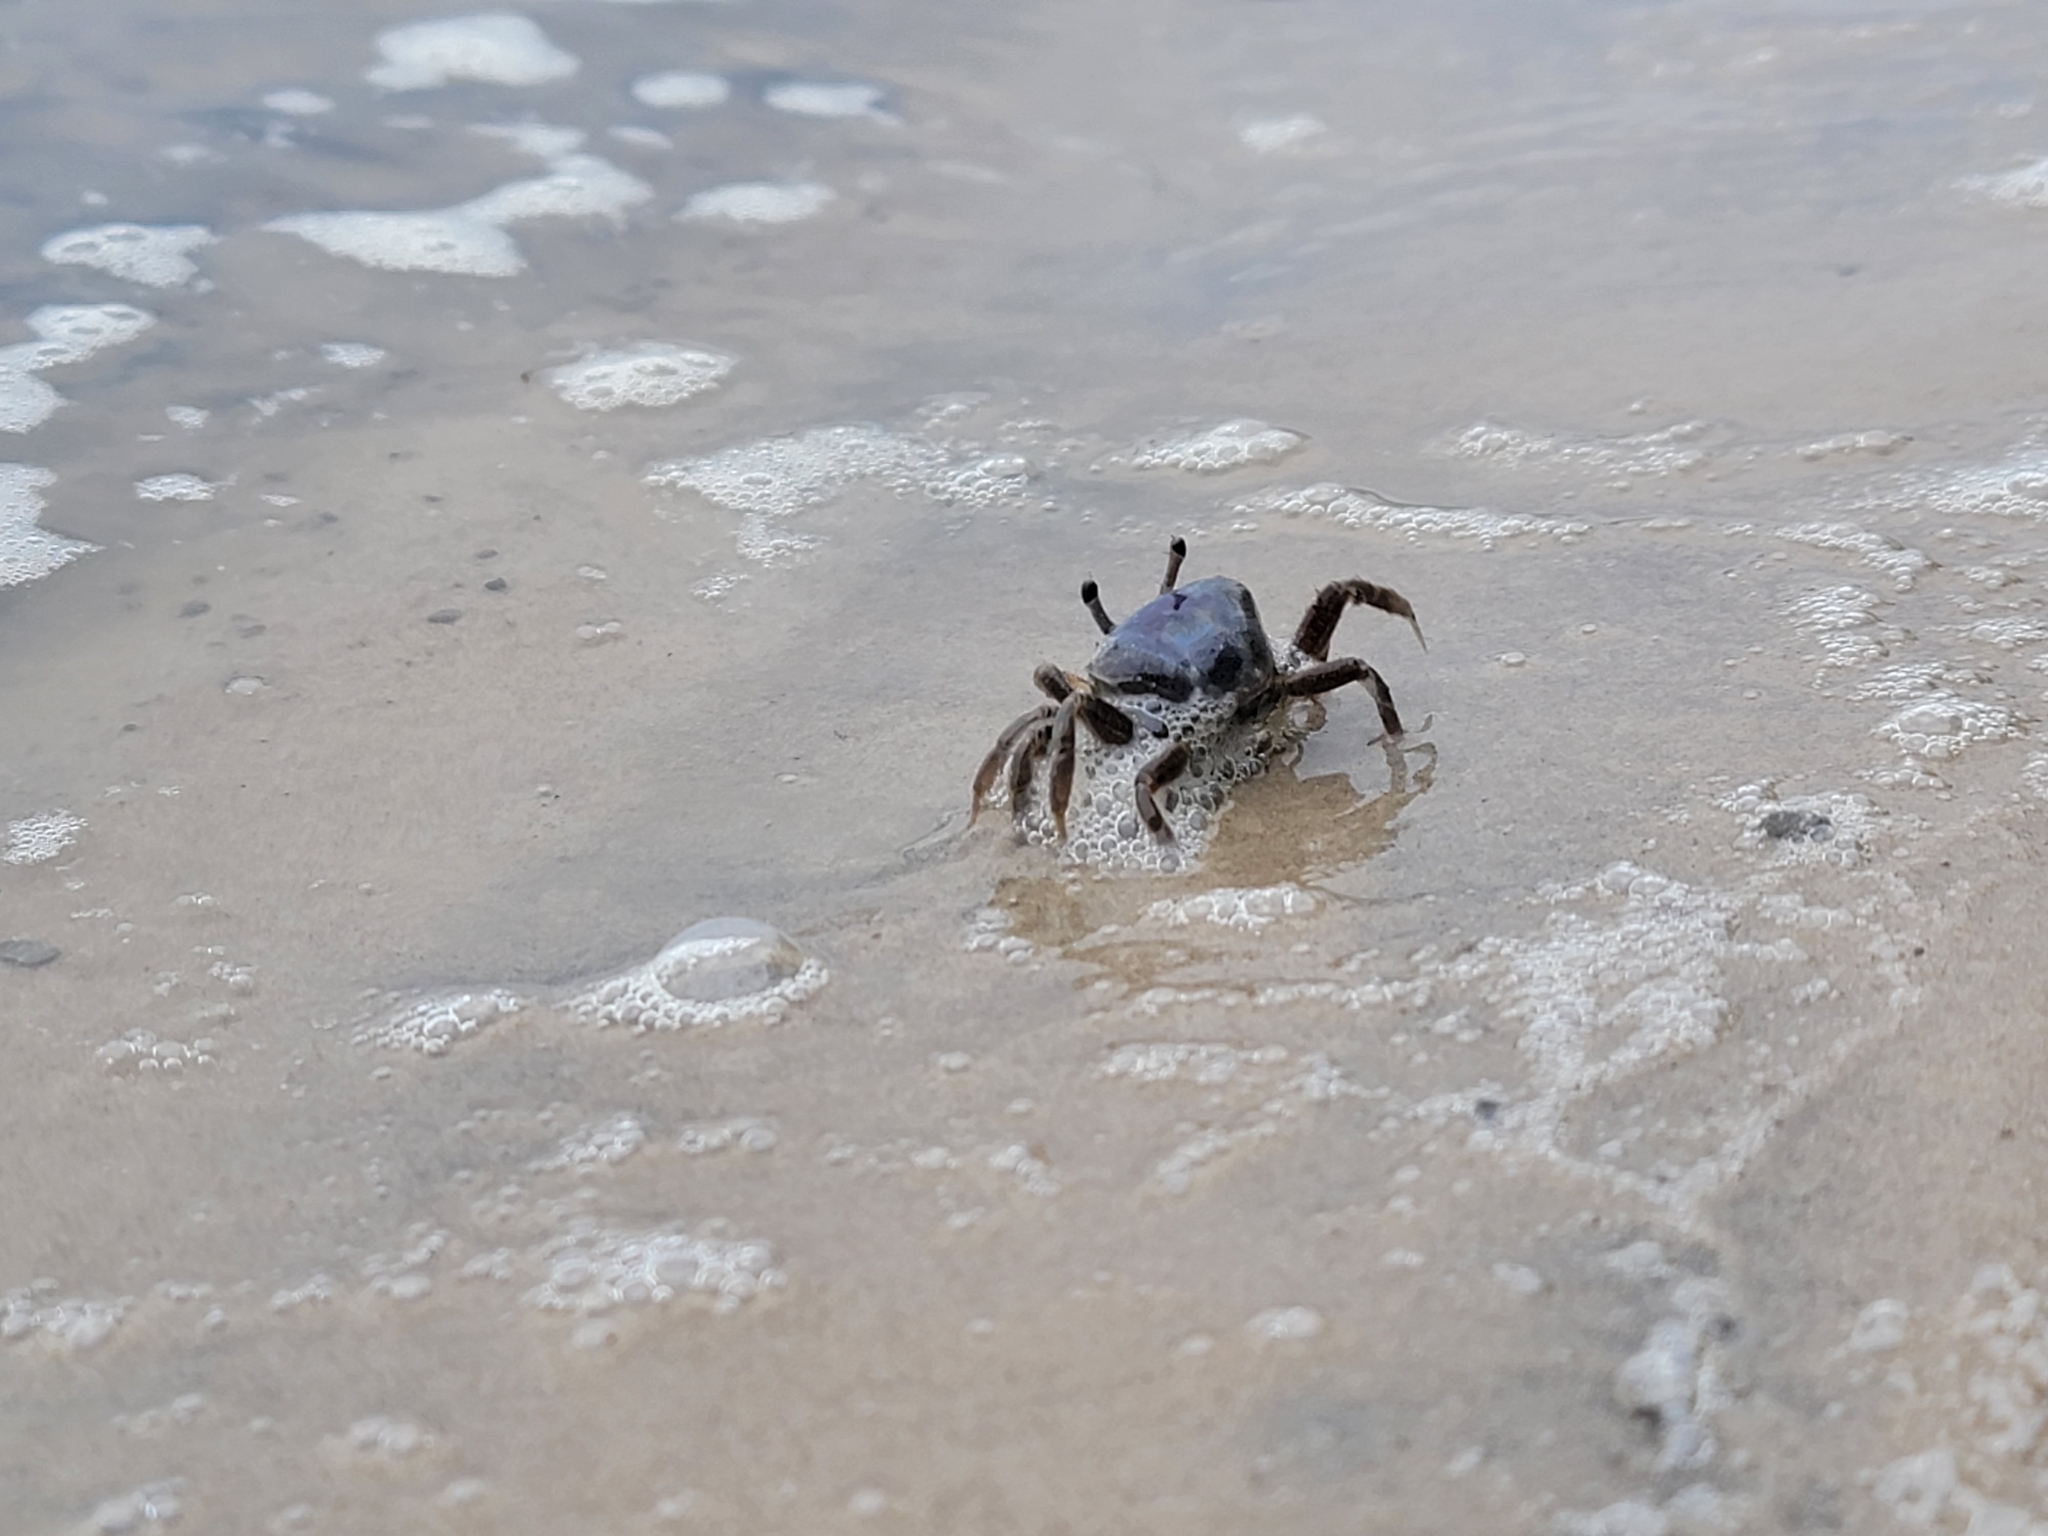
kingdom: Animalia
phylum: Arthropoda
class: Malacostraca
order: Decapoda
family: Ocypodidae
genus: Leptuca
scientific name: Leptuca pugilator
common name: Atlantic sand fiddler crab
